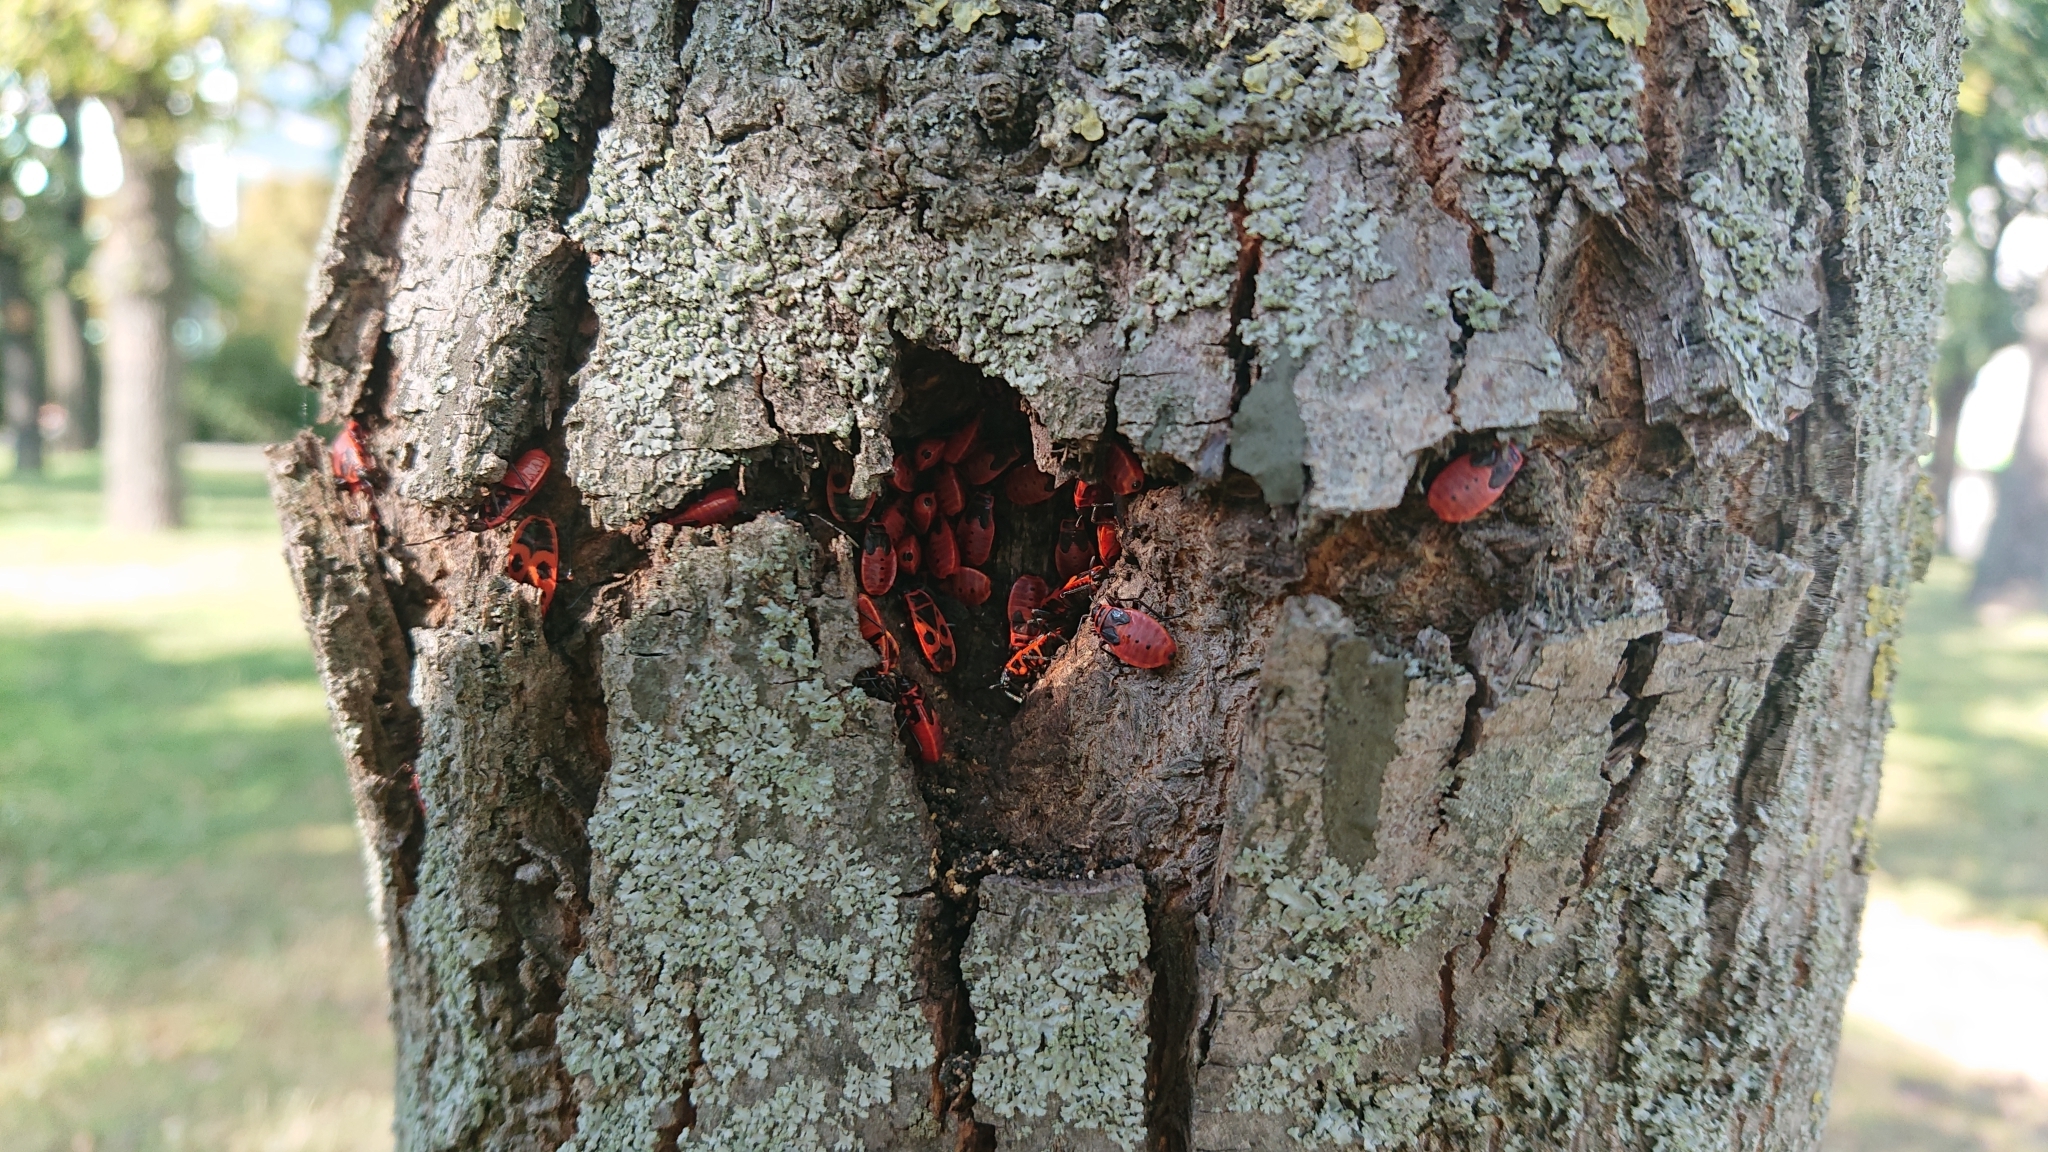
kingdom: Animalia
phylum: Arthropoda
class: Insecta
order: Hemiptera
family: Pyrrhocoridae
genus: Pyrrhocoris
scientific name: Pyrrhocoris apterus
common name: Firebug
